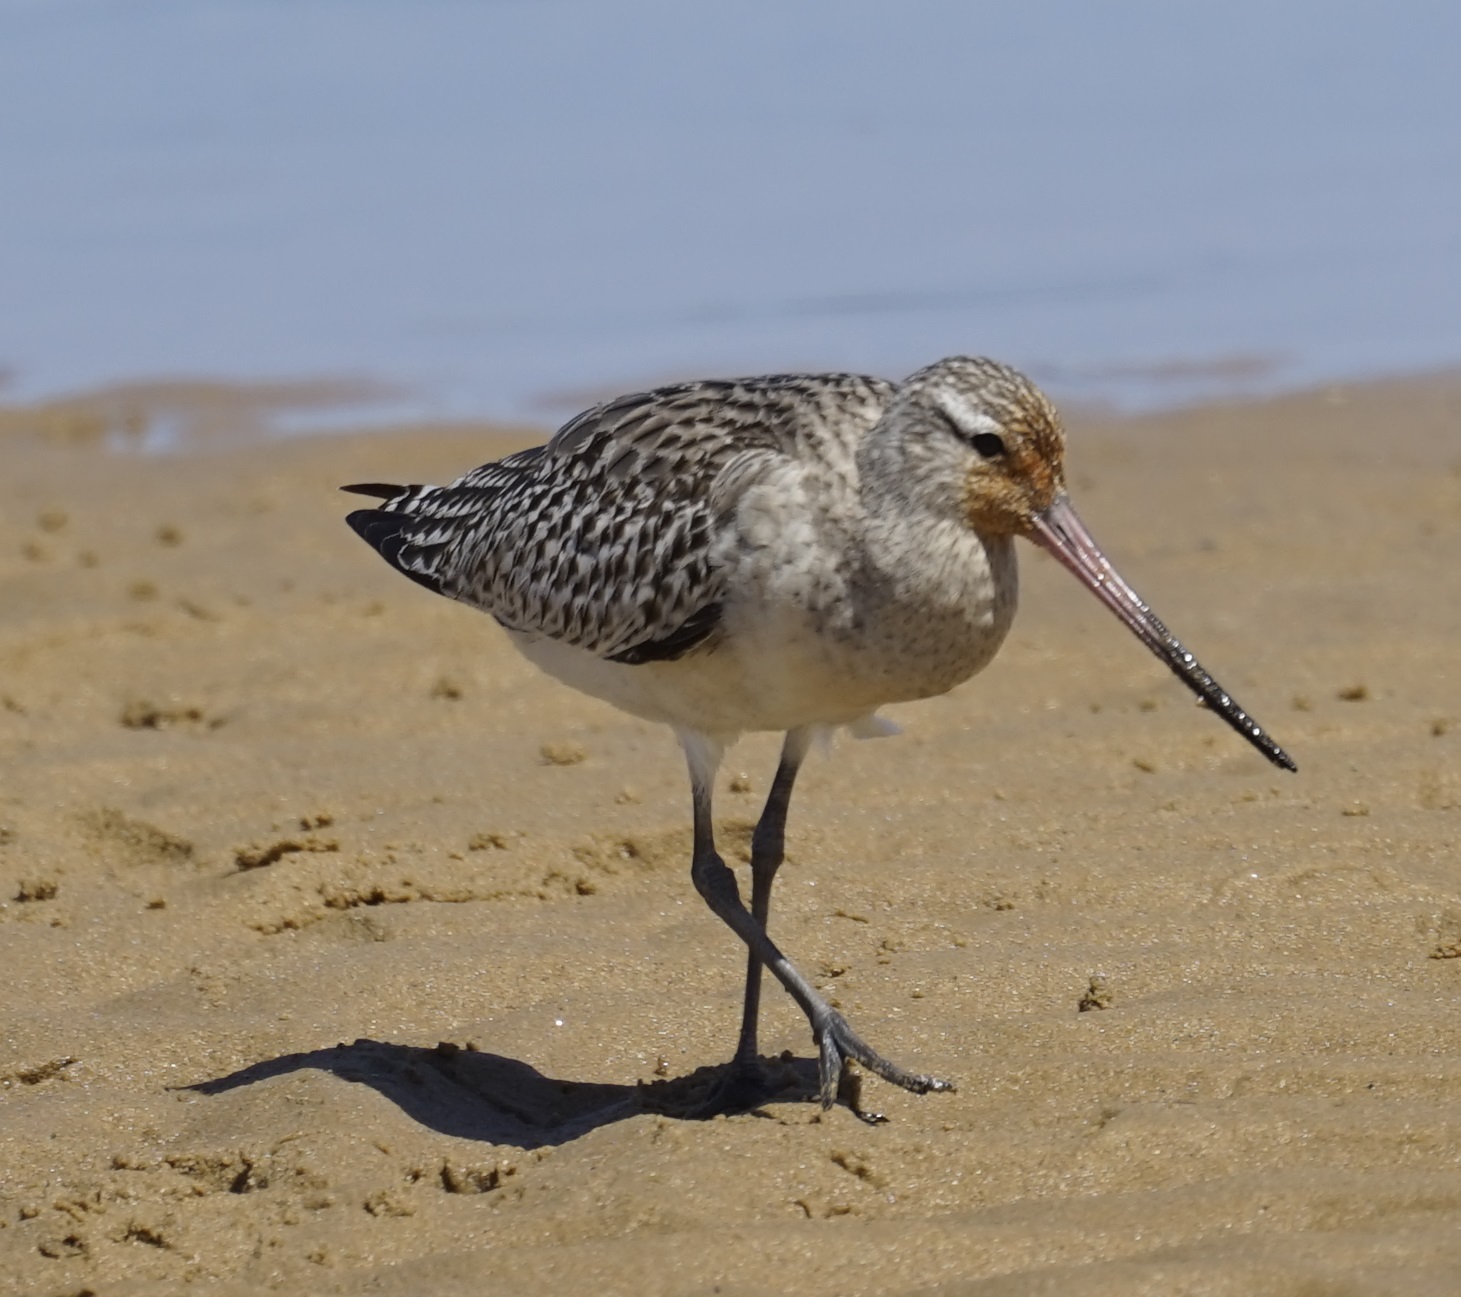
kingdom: Animalia
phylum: Chordata
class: Aves
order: Charadriiformes
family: Scolopacidae
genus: Limosa
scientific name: Limosa lapponica
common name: Bar-tailed godwit
